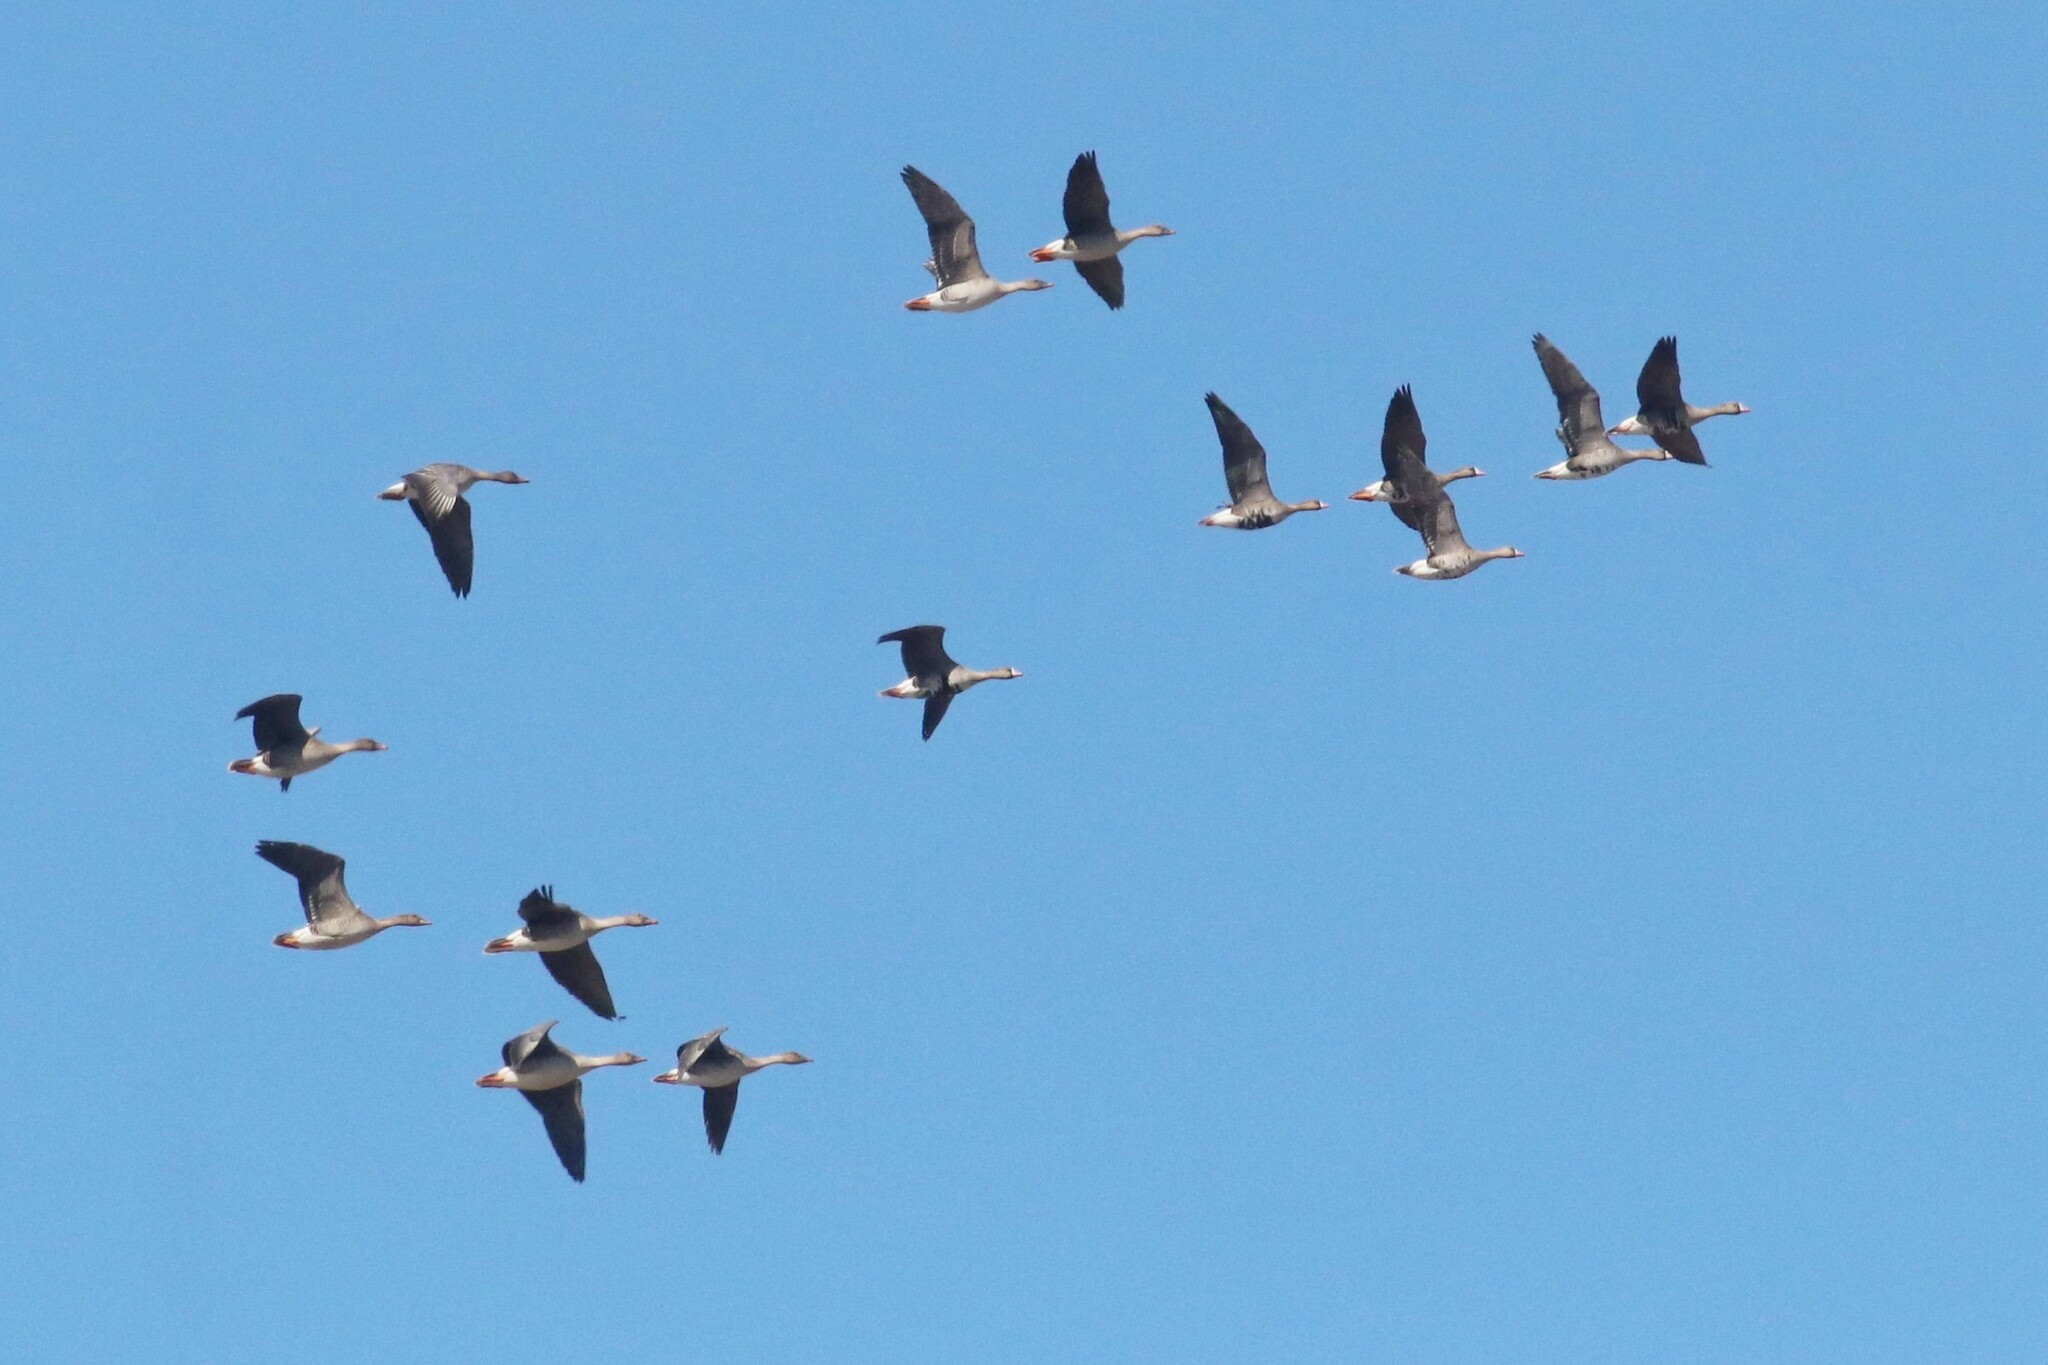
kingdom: Animalia
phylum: Chordata
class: Aves
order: Anseriformes
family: Anatidae
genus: Anser
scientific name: Anser albifrons
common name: Greater white-fronted goose
